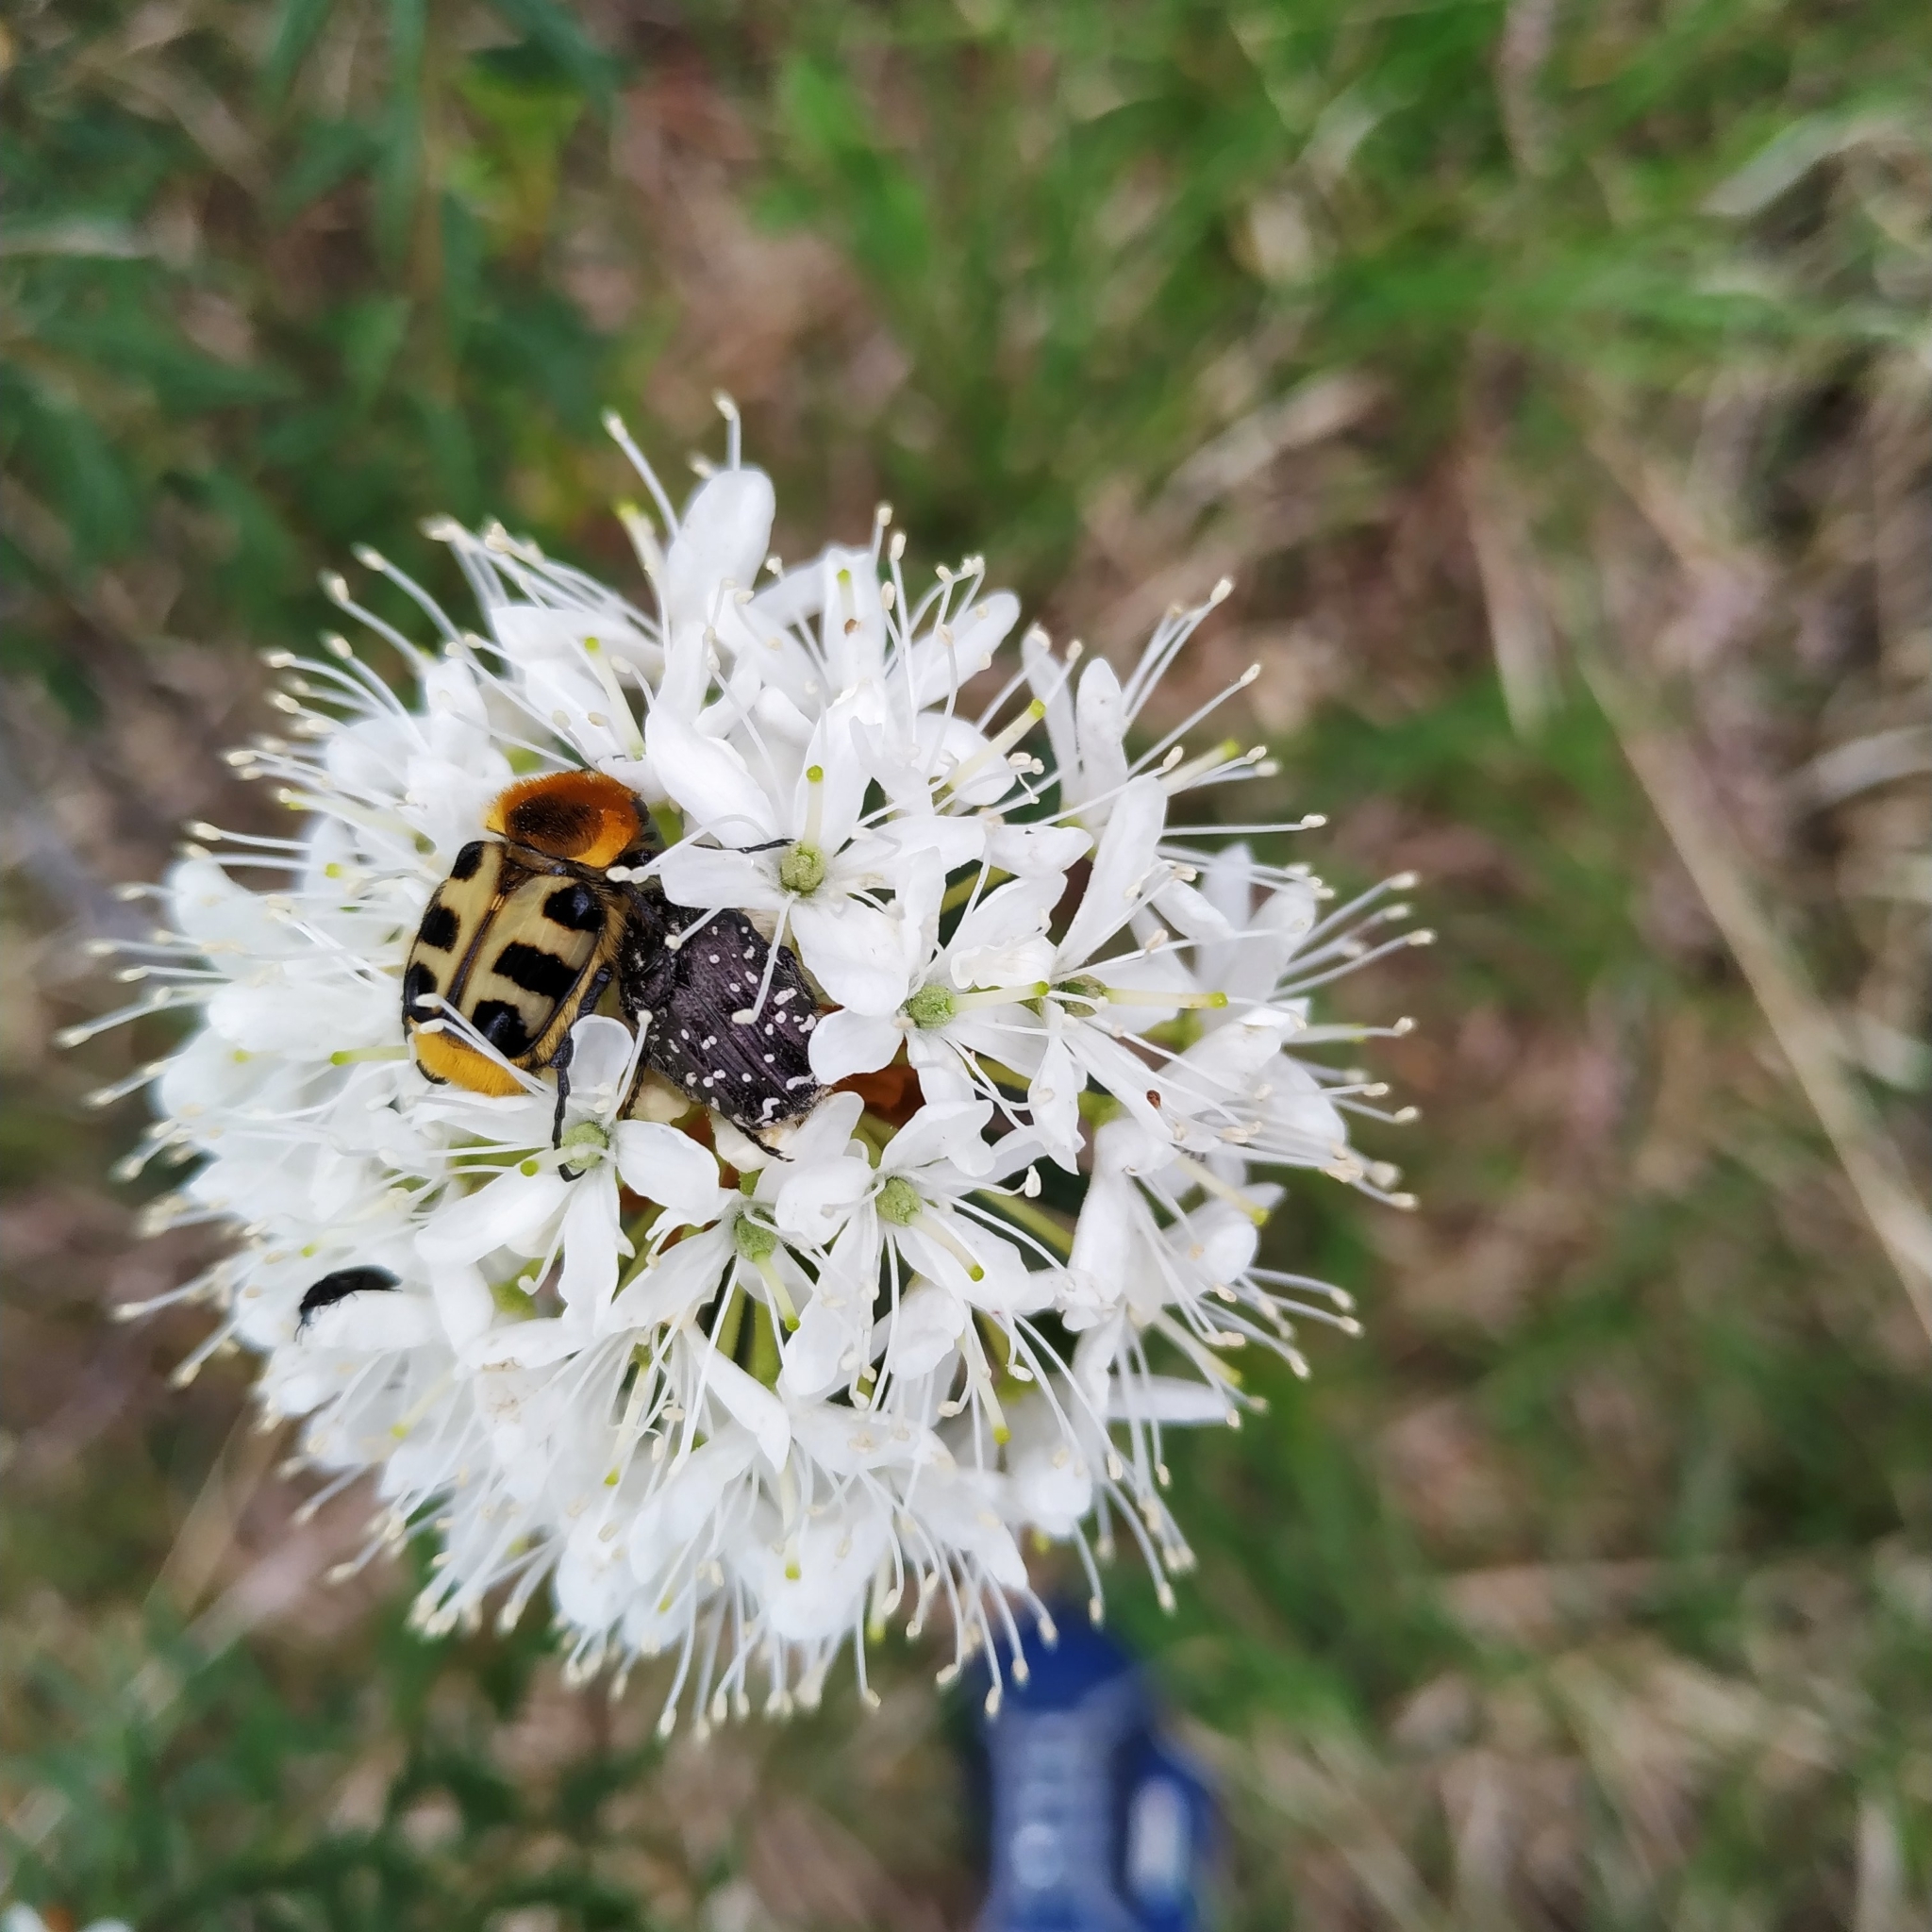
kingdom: Animalia
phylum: Arthropoda
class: Insecta
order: Coleoptera
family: Scarabaeidae
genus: Trichius
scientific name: Trichius gallicus
